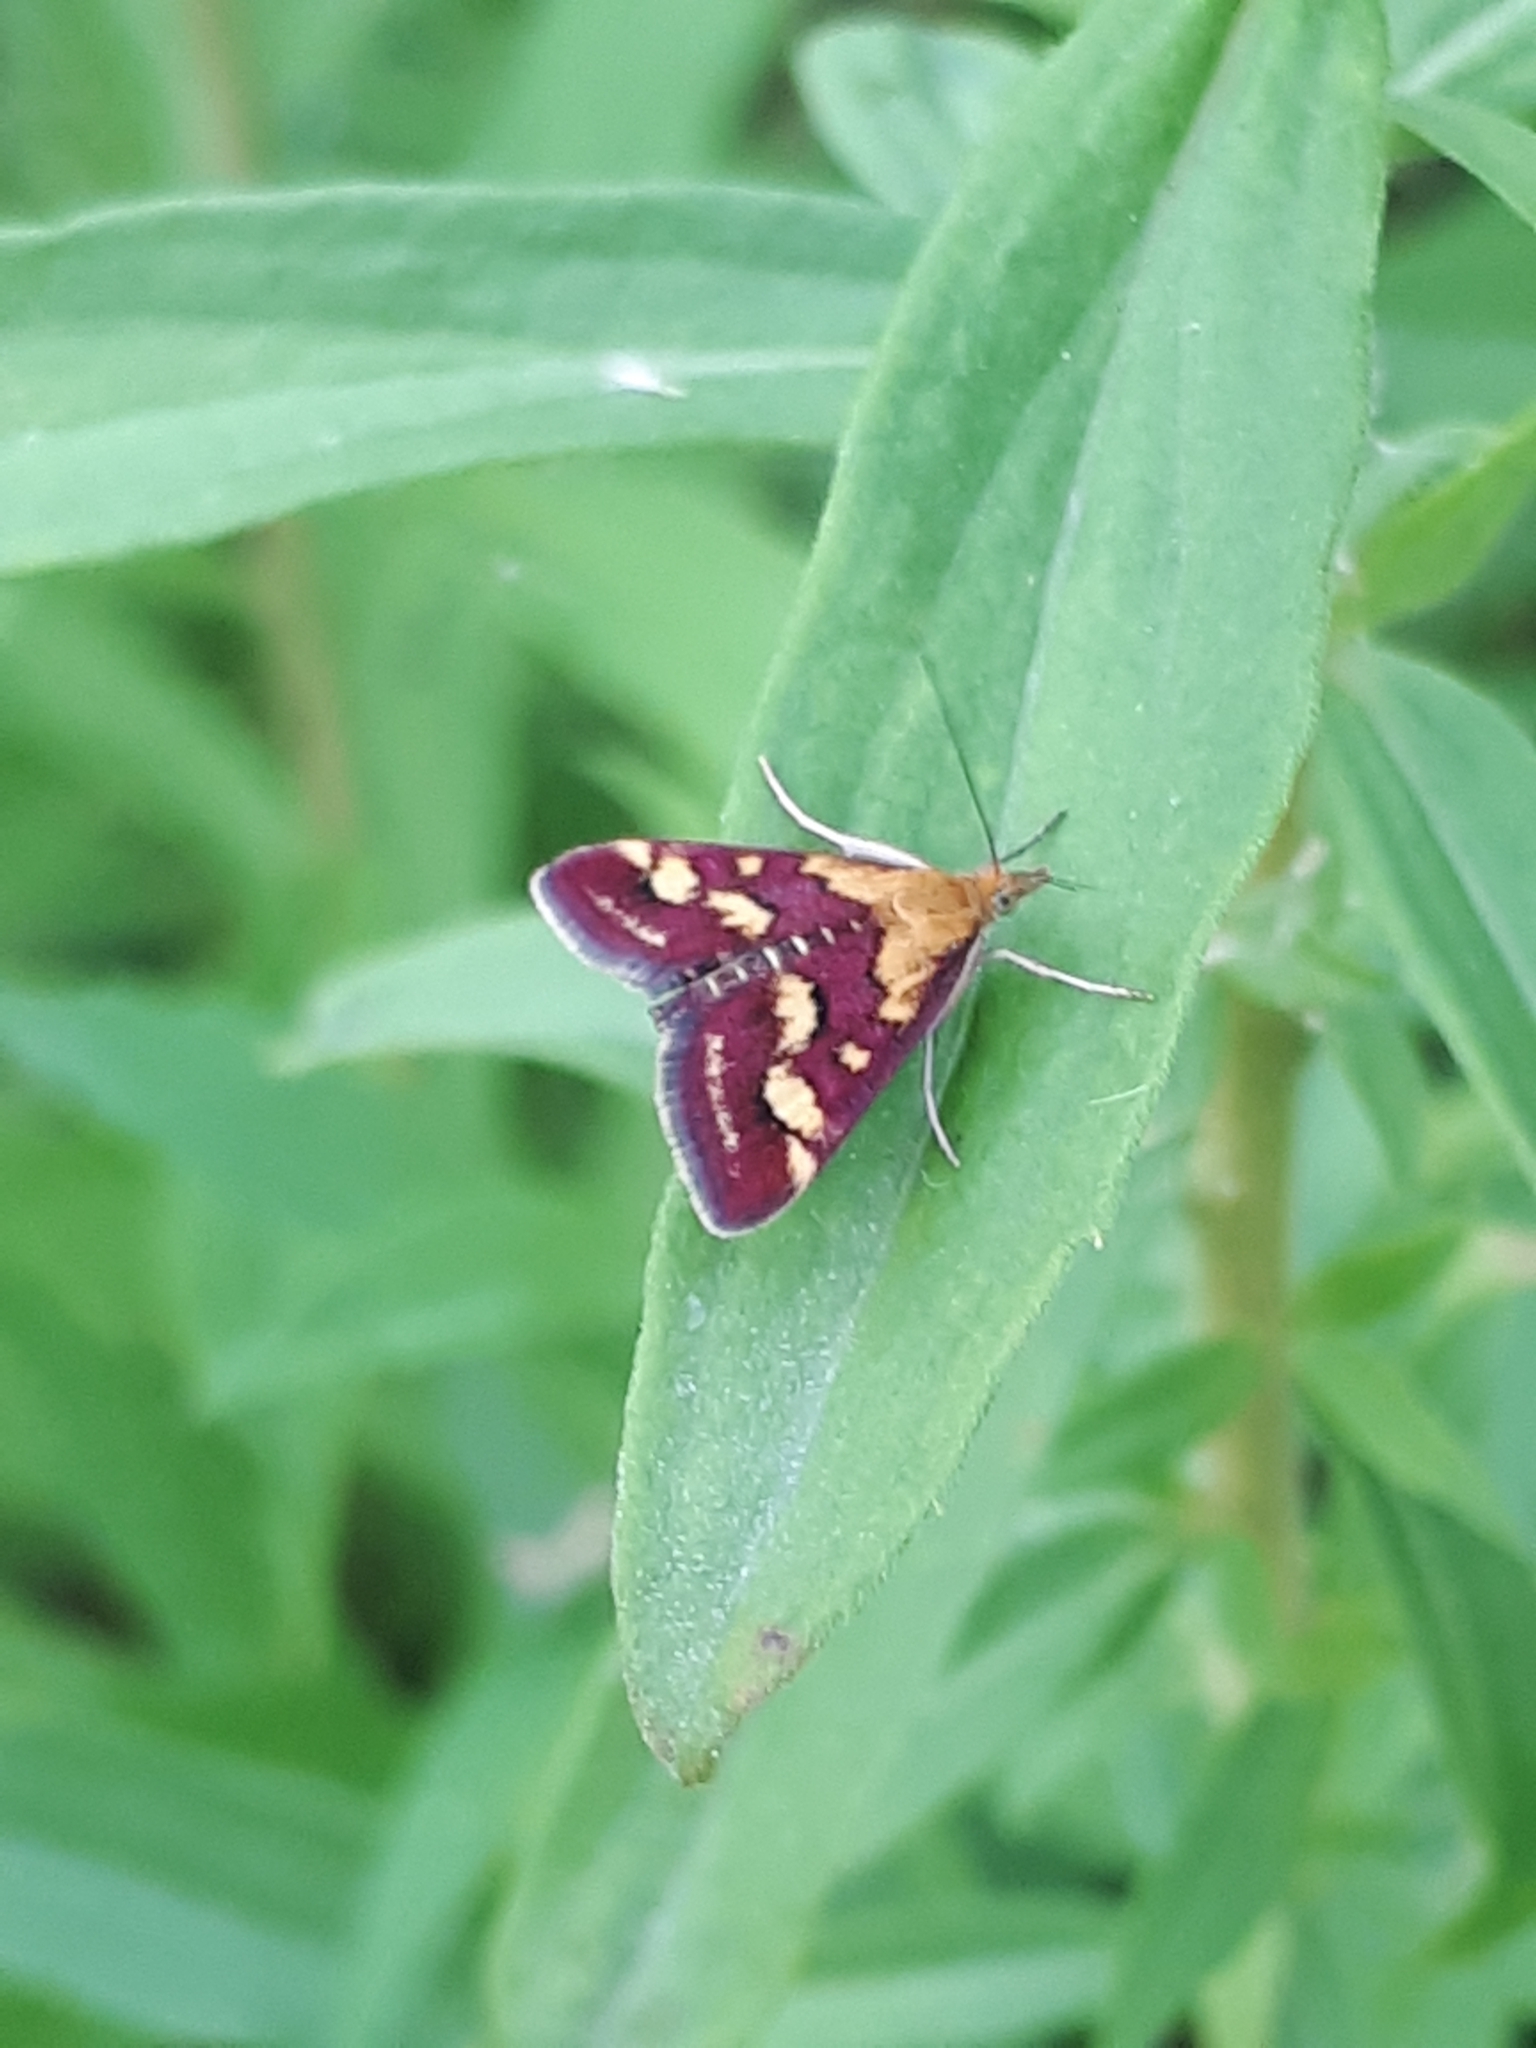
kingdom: Animalia
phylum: Arthropoda
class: Insecta
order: Lepidoptera
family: Crambidae
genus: Pyrausta
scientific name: Pyrausta purpuralis
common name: Common purple & gold
